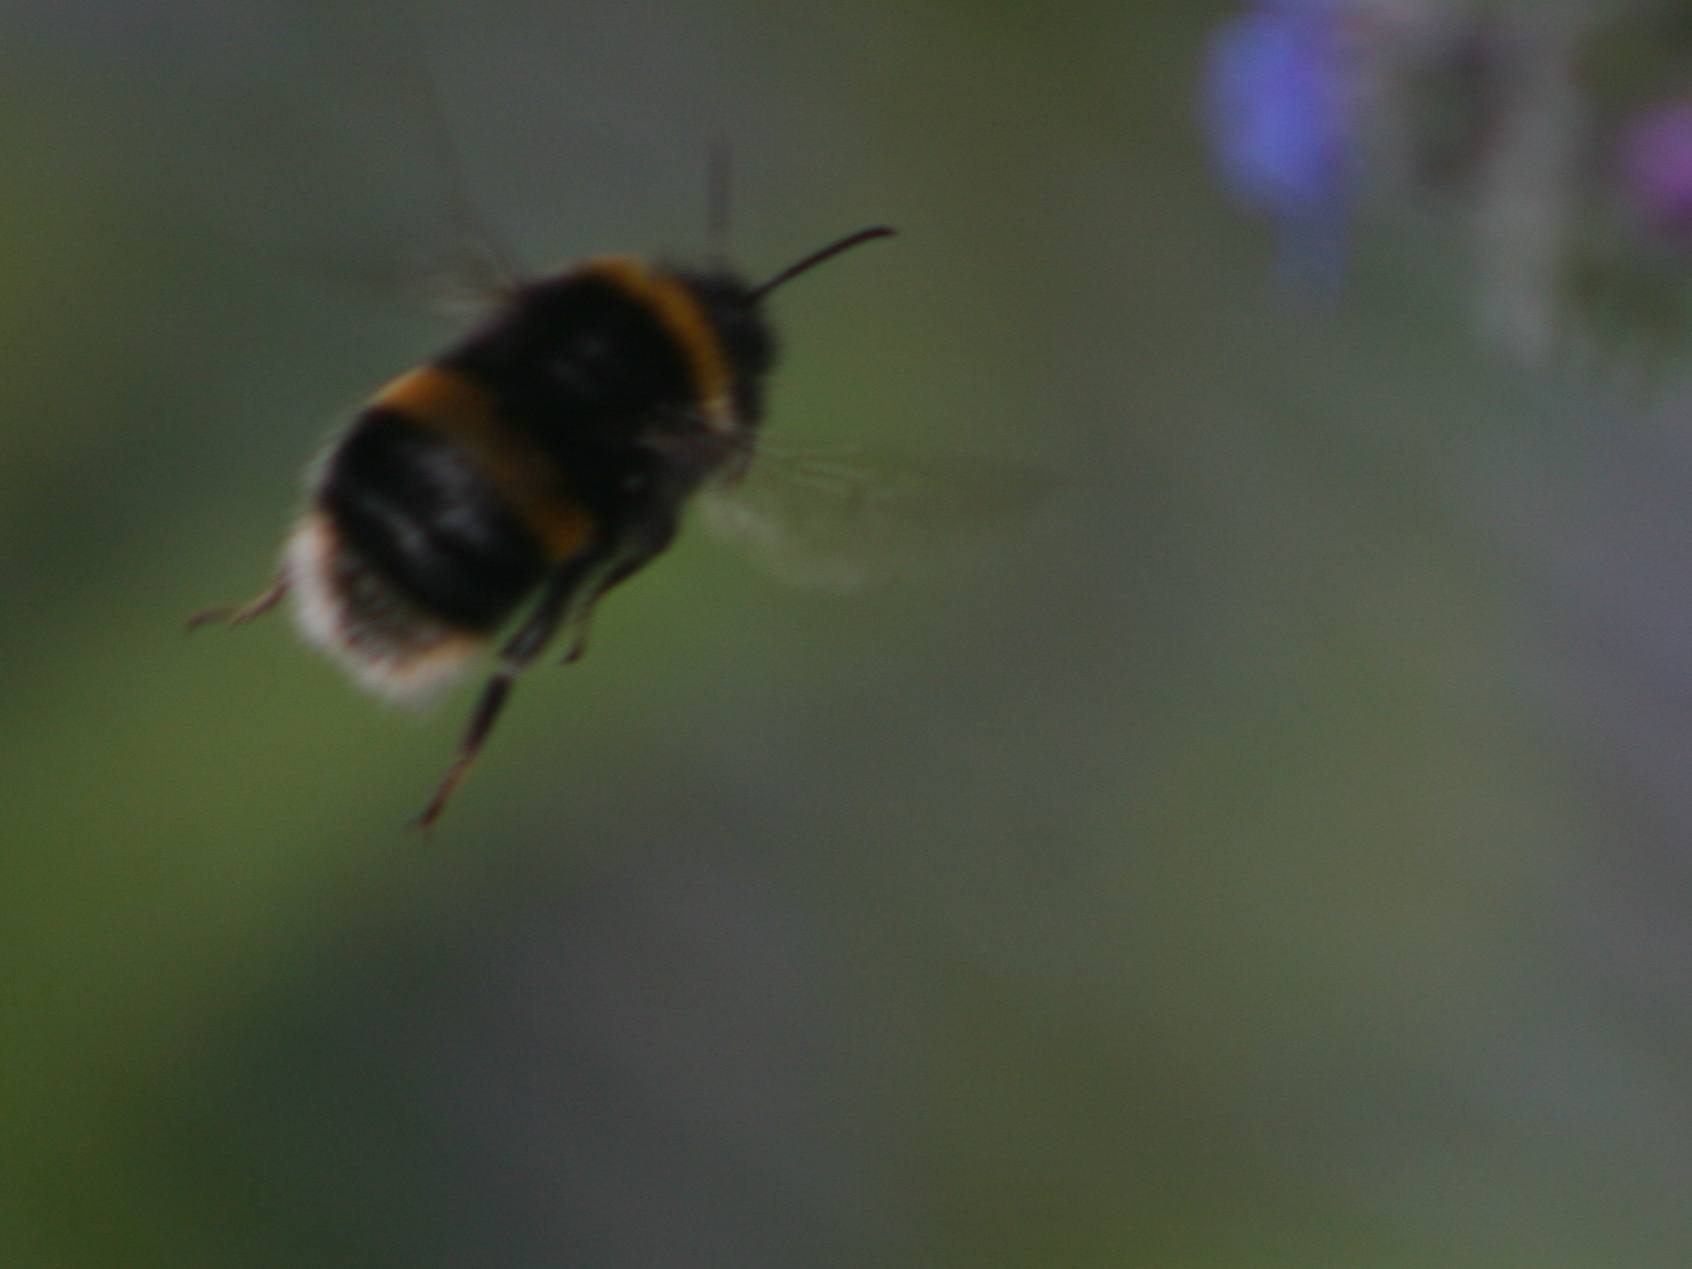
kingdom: Animalia
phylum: Arthropoda
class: Insecta
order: Hymenoptera
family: Apidae
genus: Bombus
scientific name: Bombus terrestris
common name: Buff-tailed bumblebee
